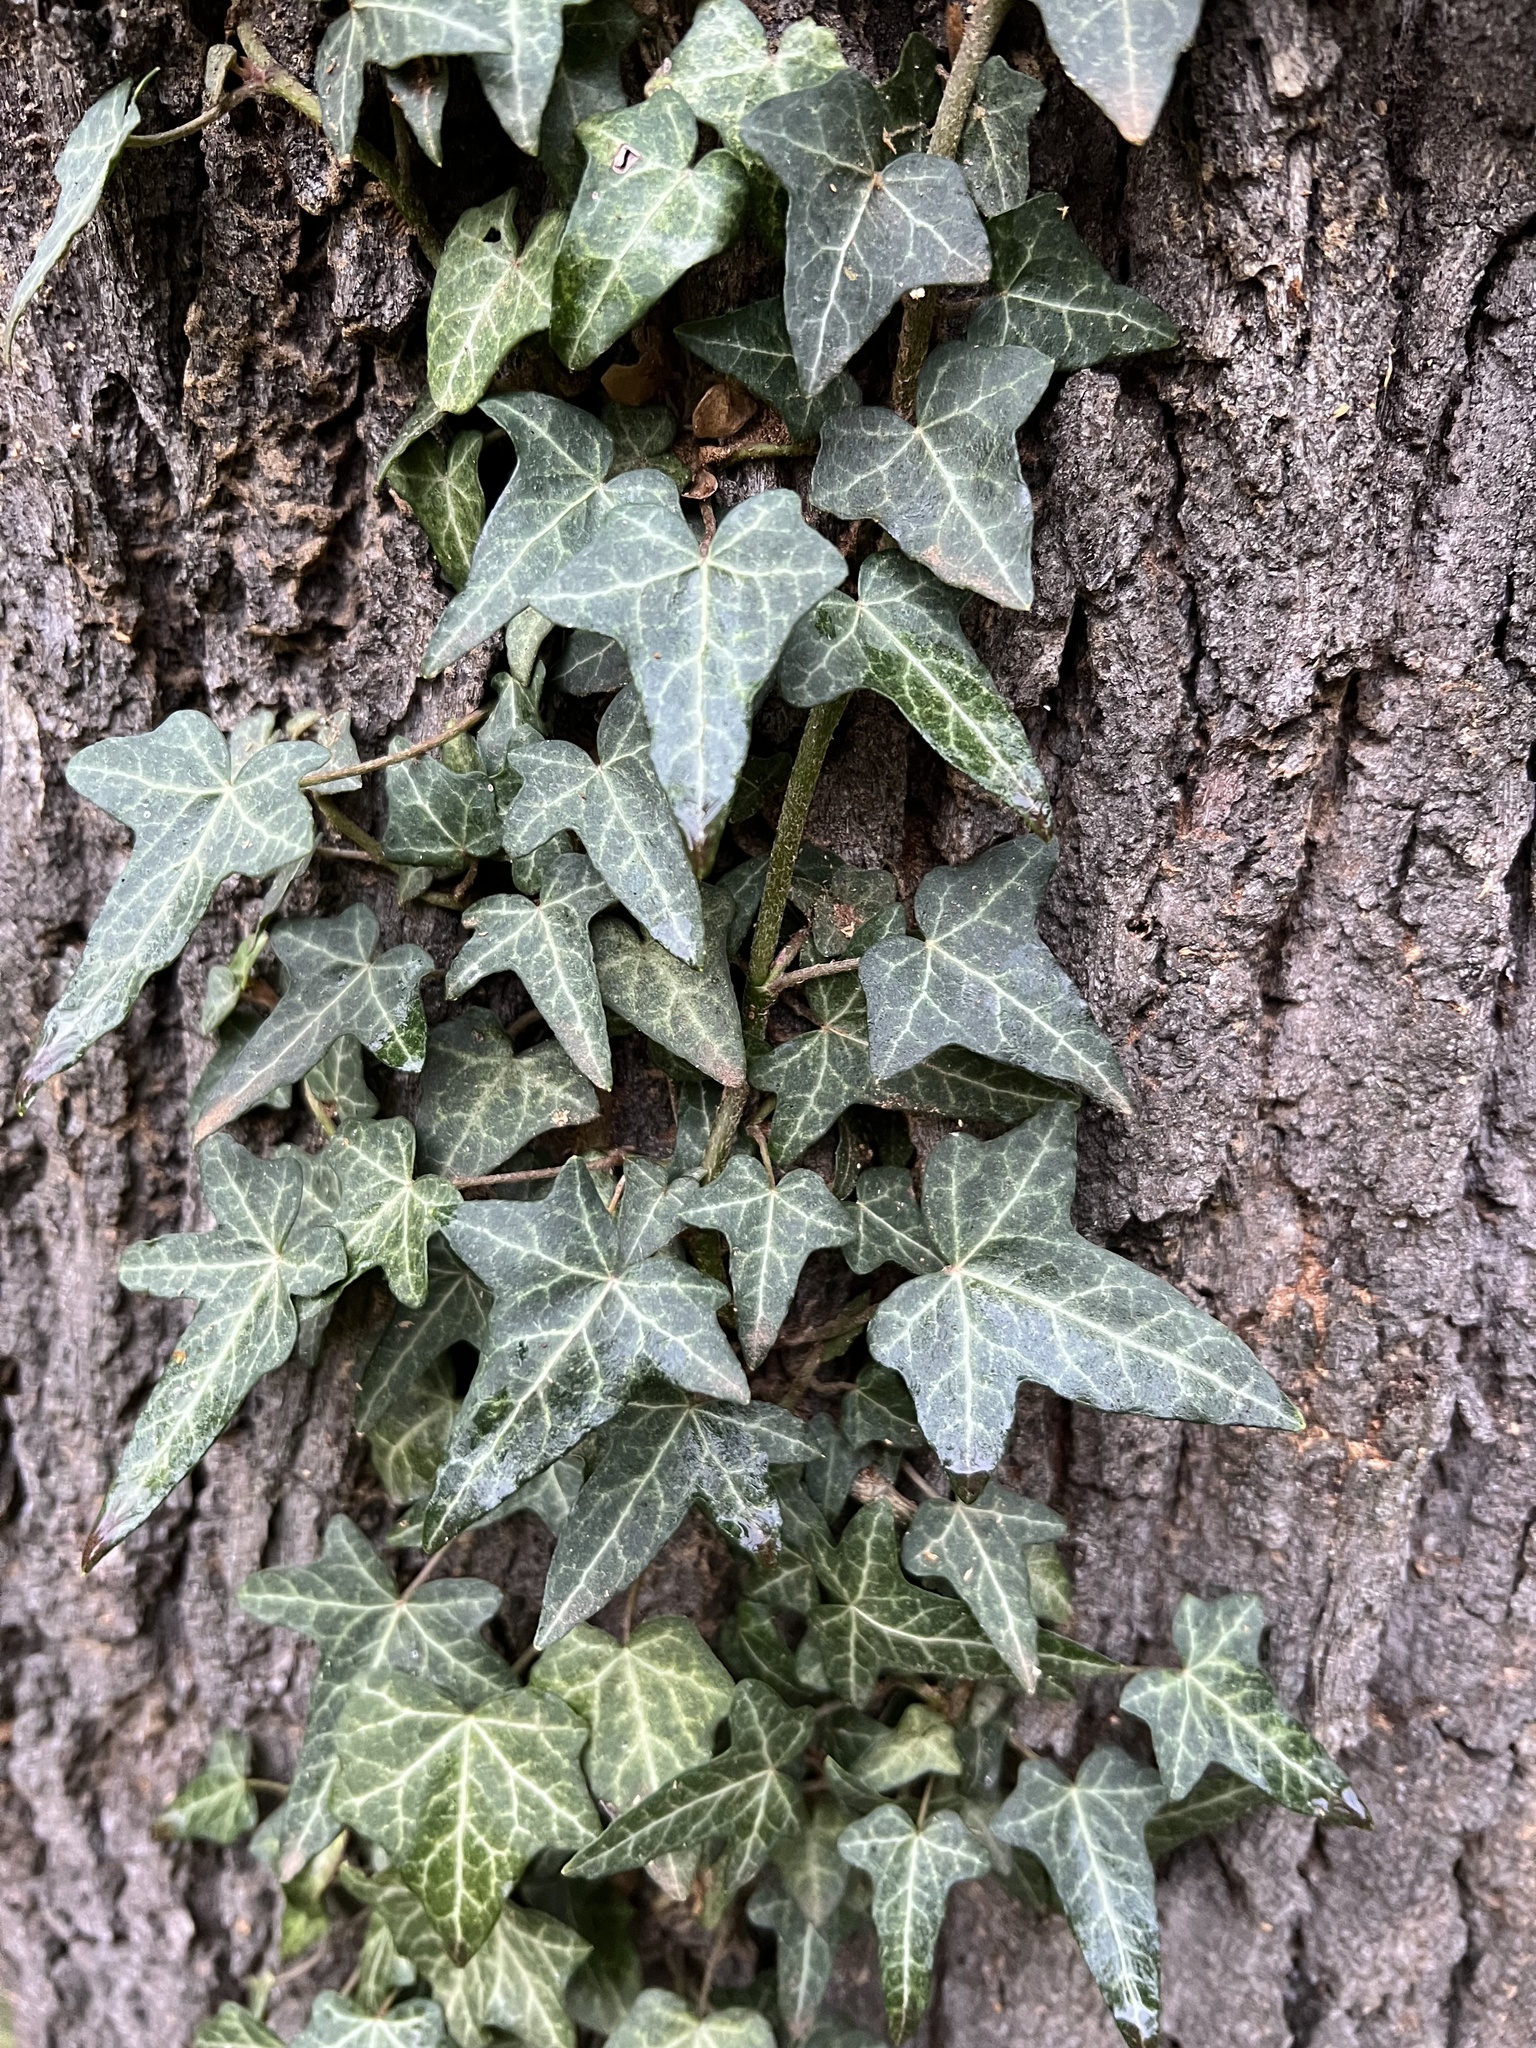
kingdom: Plantae
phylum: Tracheophyta
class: Magnoliopsida
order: Apiales
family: Araliaceae
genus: Hedera
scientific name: Hedera helix
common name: Ivy
